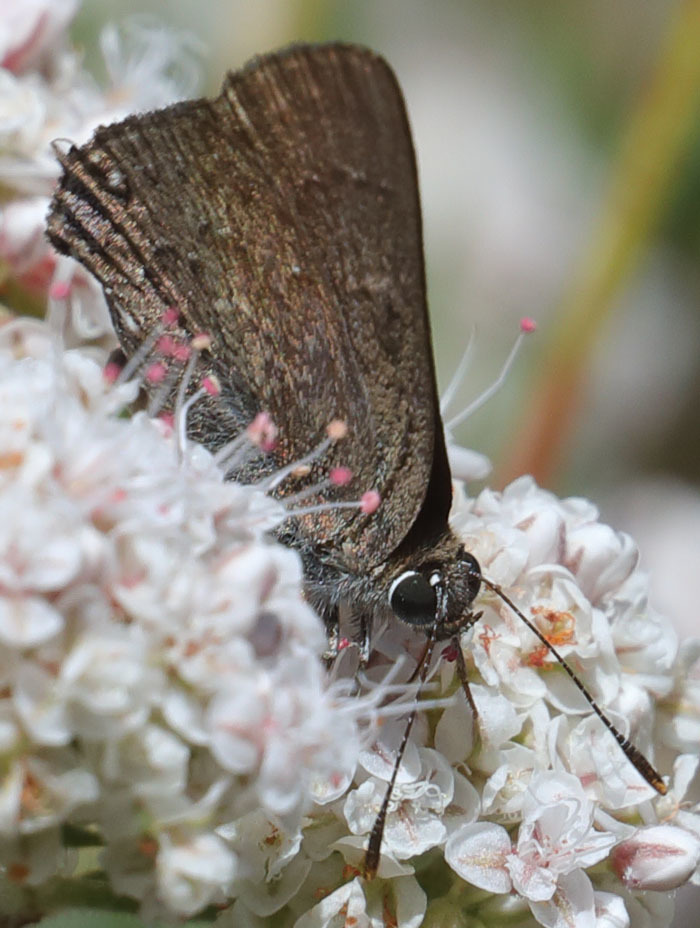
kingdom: Animalia
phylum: Arthropoda
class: Insecta
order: Lepidoptera
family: Lycaenidae
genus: Strymon
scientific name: Strymon saepium
